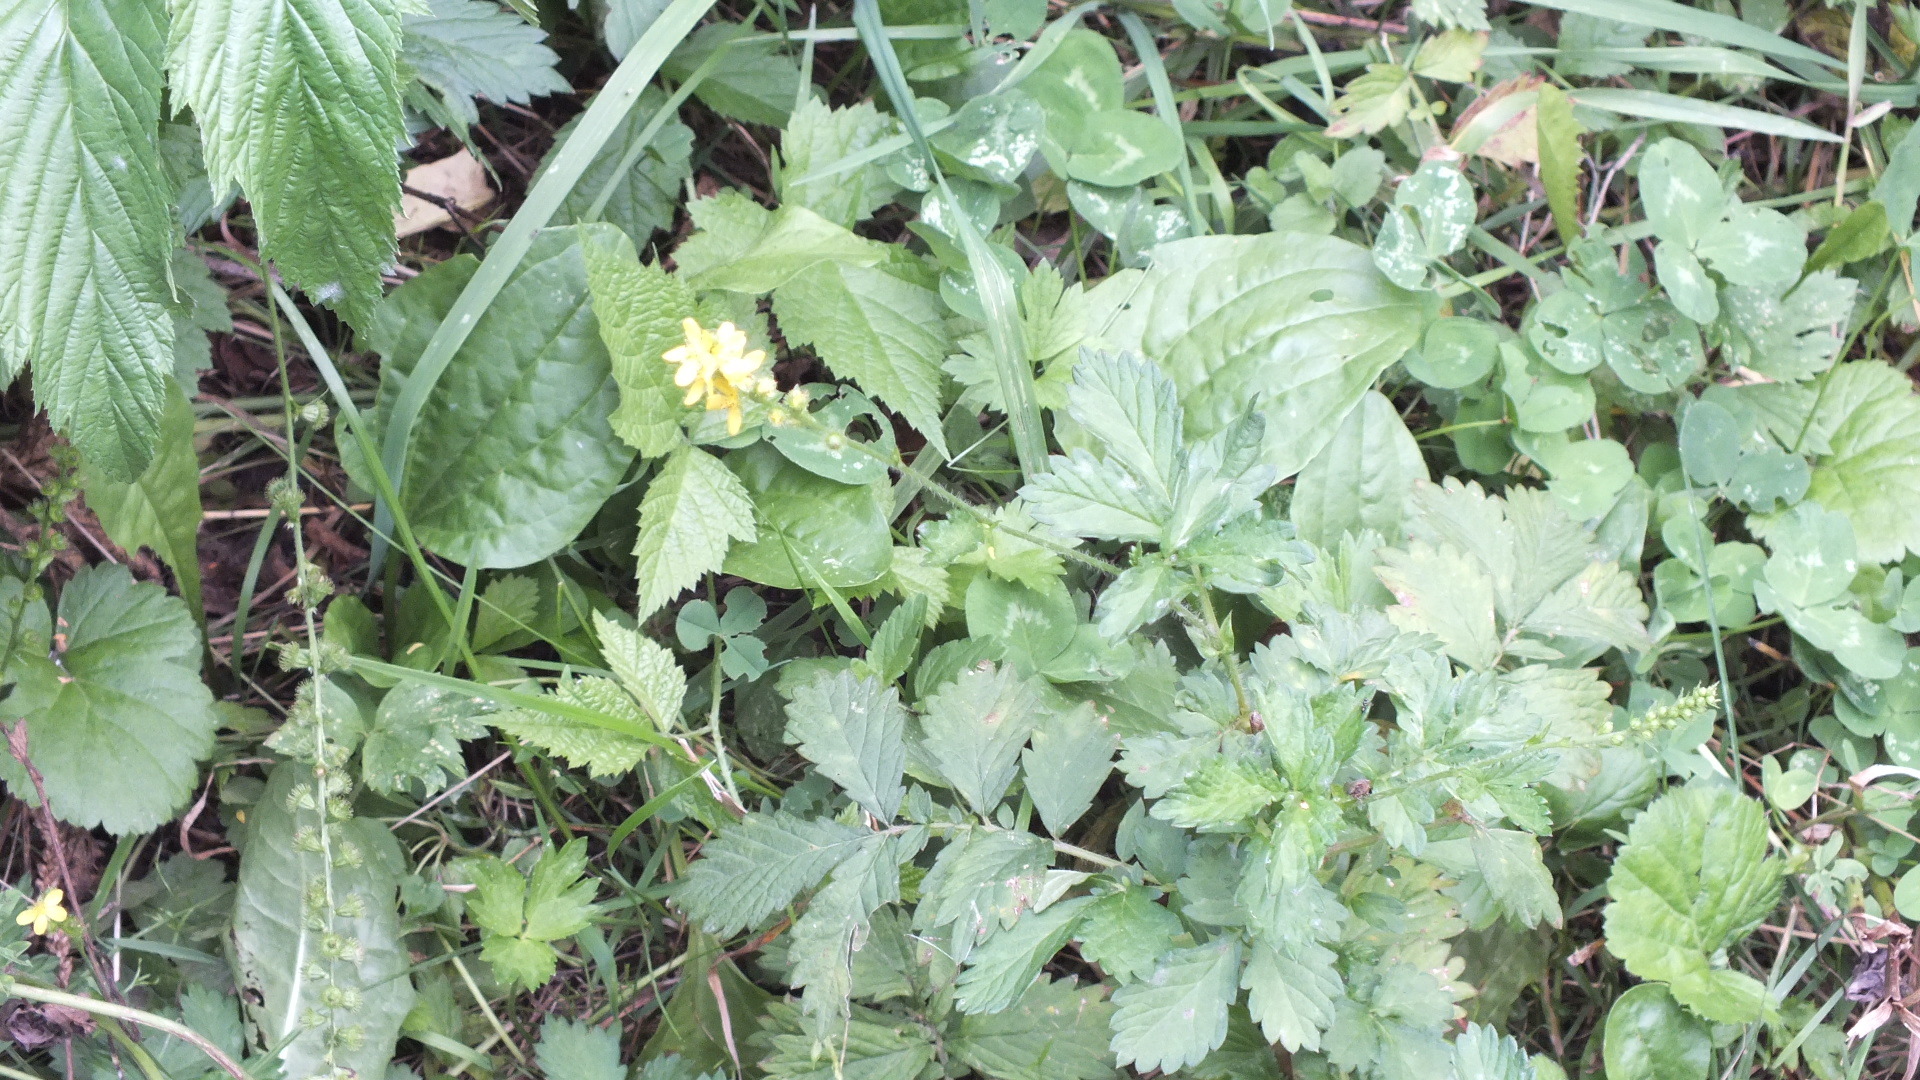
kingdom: Plantae
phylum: Tracheophyta
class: Magnoliopsida
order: Rosales
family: Rosaceae
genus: Agrimonia
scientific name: Agrimonia pilosa
